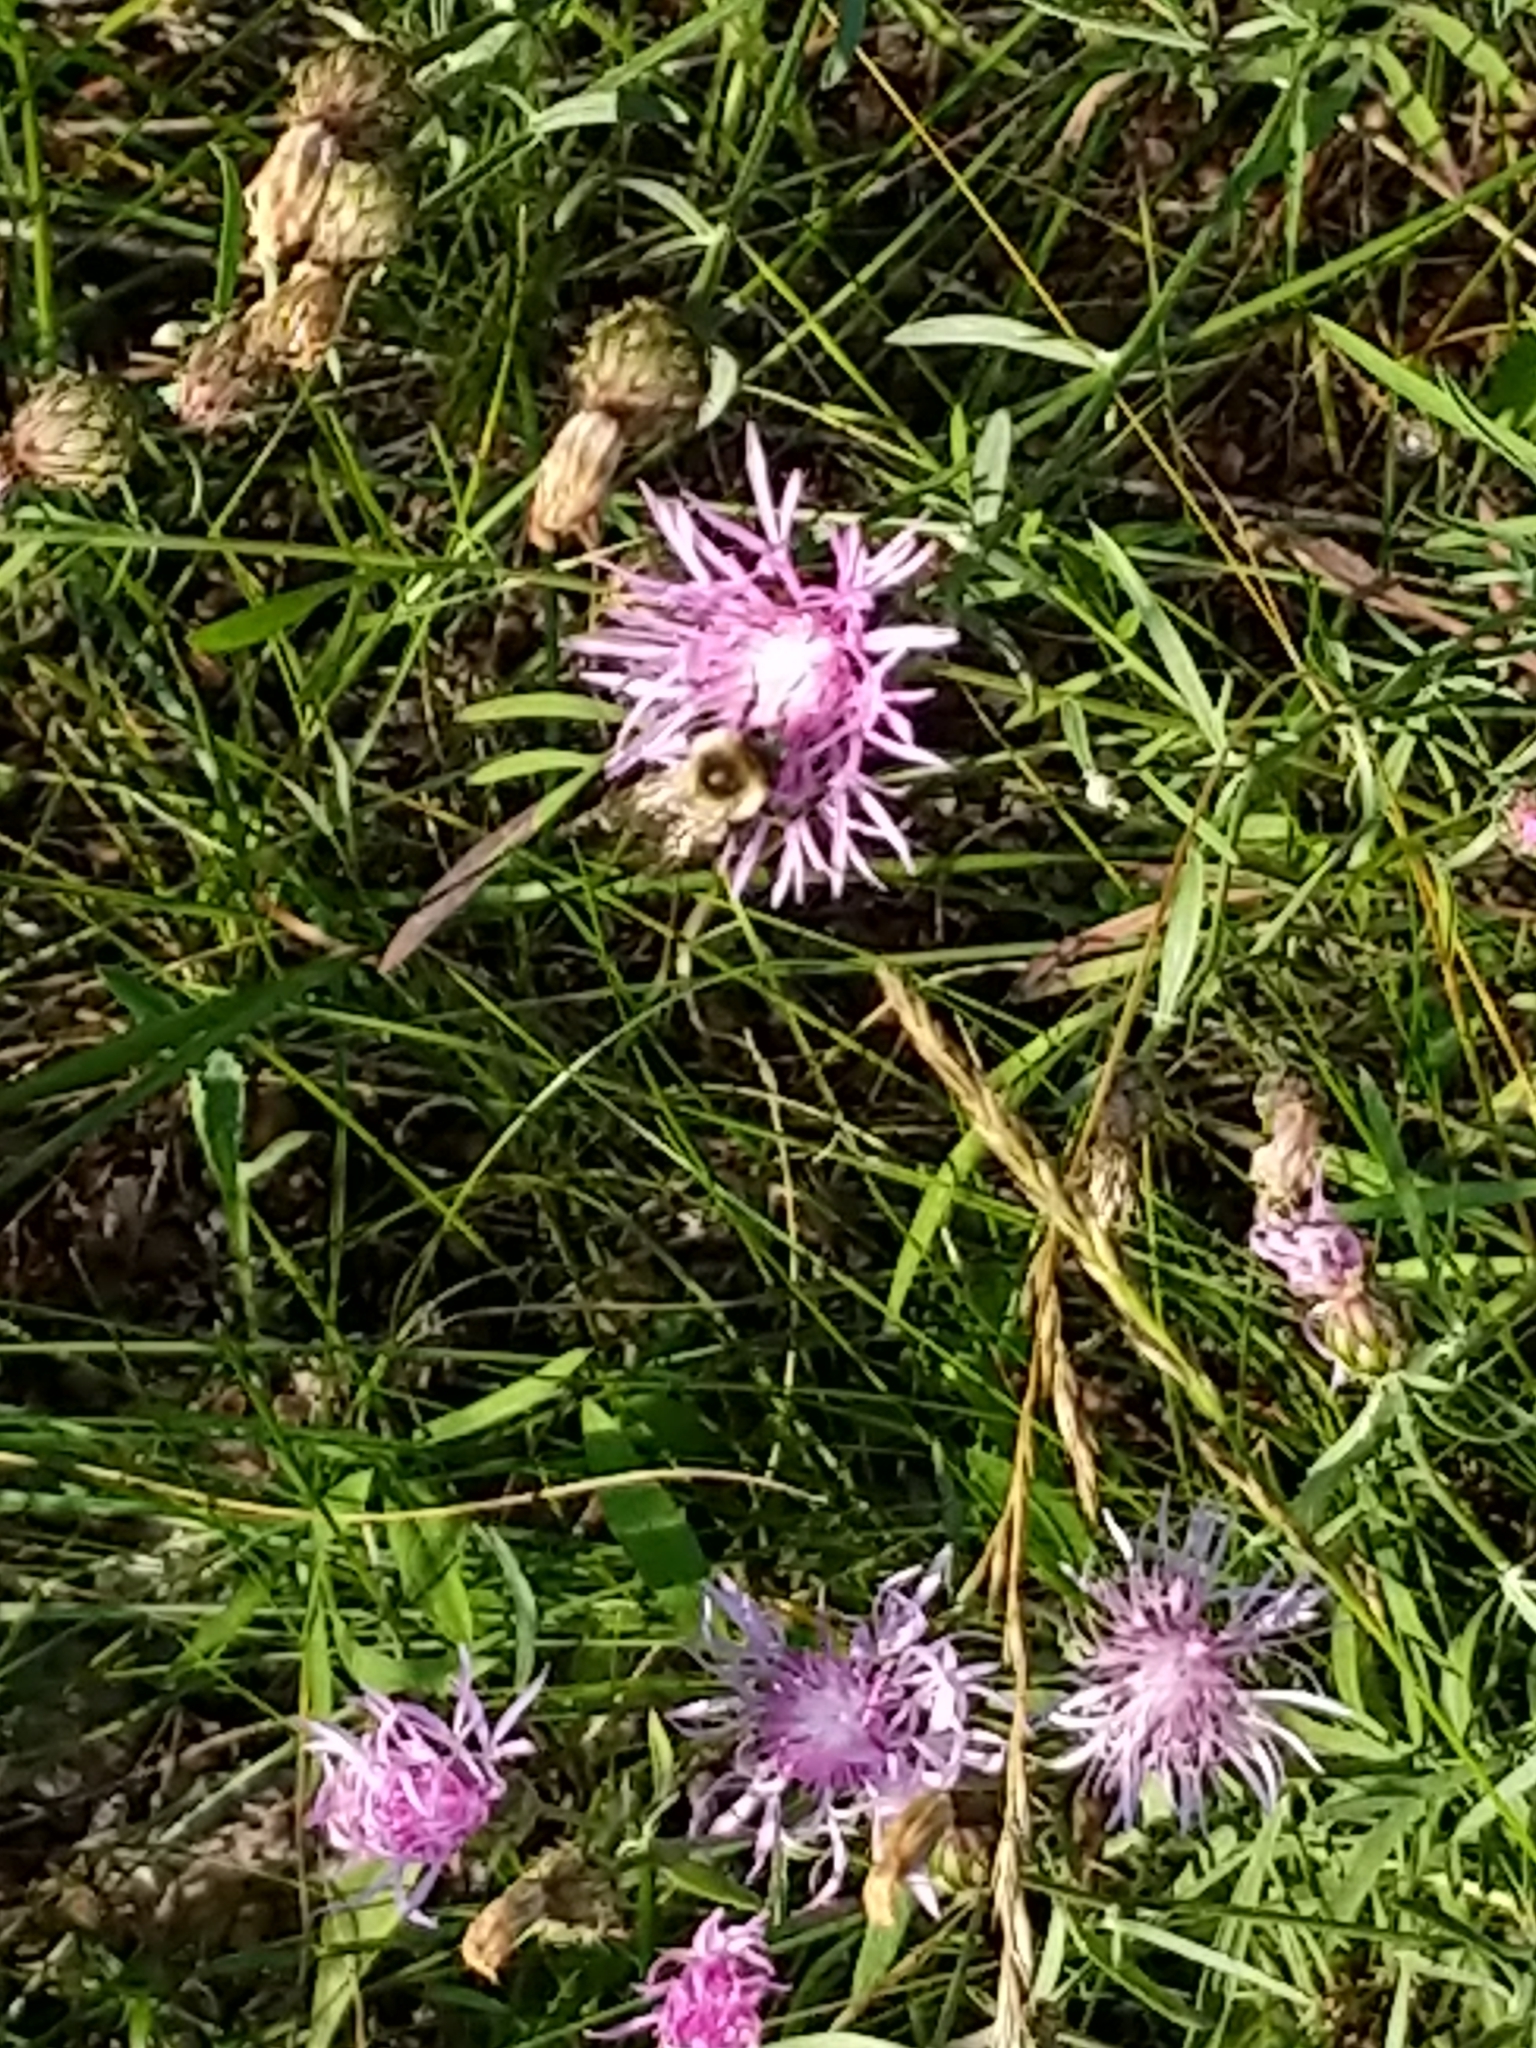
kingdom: Animalia
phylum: Arthropoda
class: Insecta
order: Hymenoptera
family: Apidae
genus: Bombus
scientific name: Bombus impatiens
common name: Common eastern bumble bee
